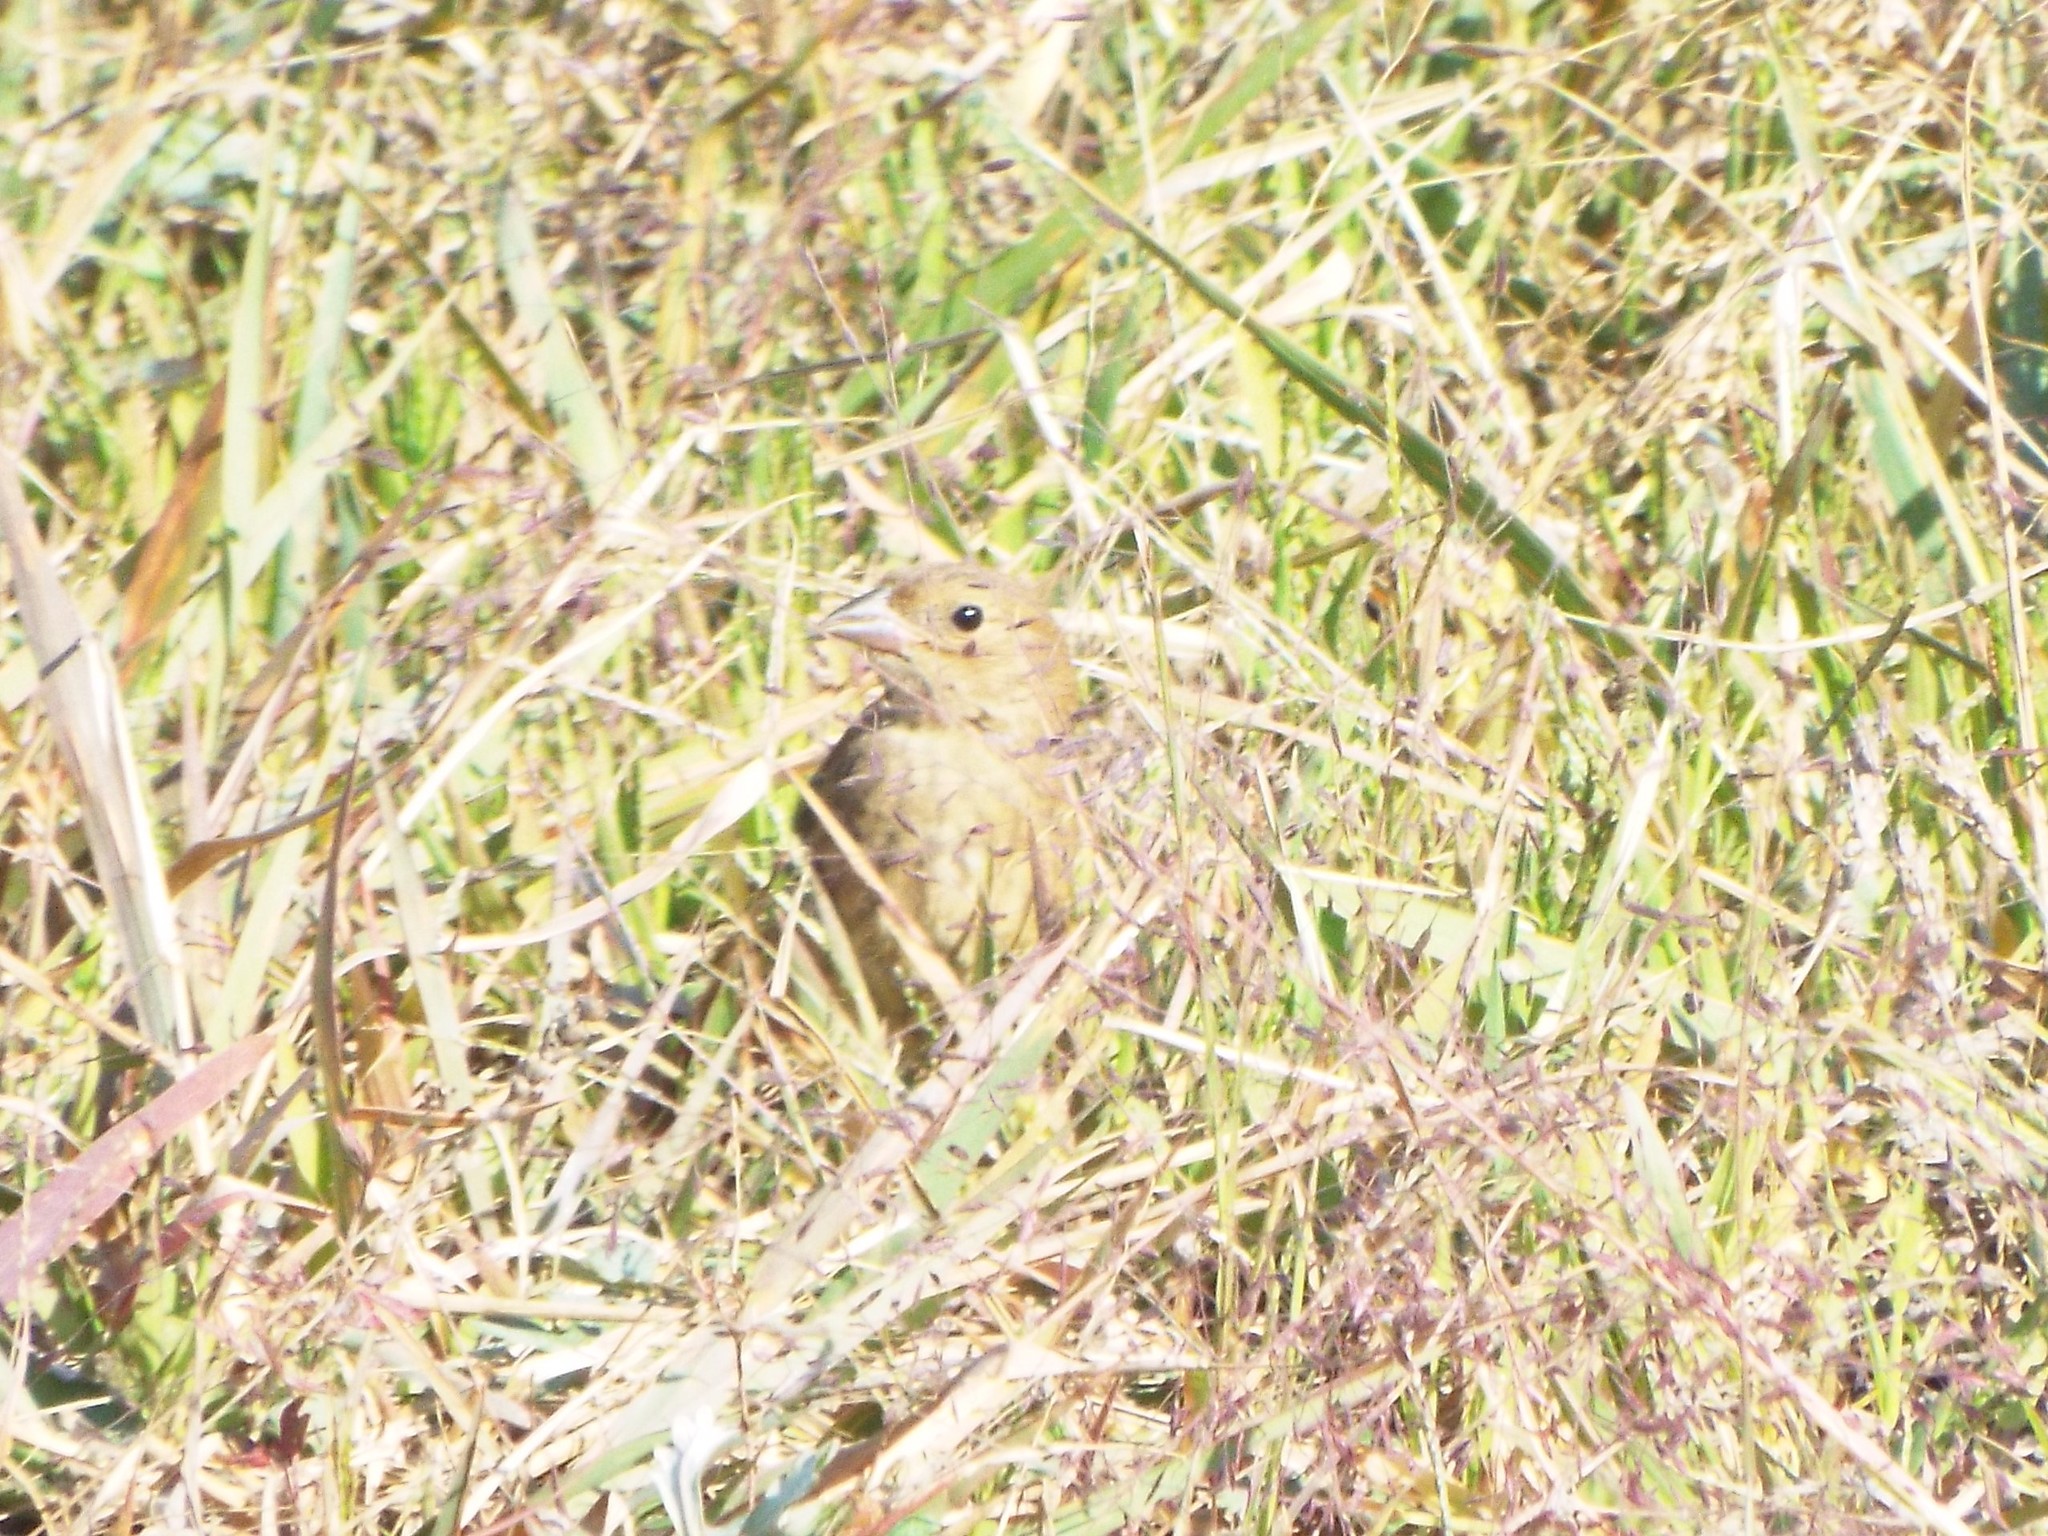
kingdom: Animalia
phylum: Chordata
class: Aves
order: Passeriformes
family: Cardinalidae
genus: Passerina
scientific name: Passerina cyanea
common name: Indigo bunting
